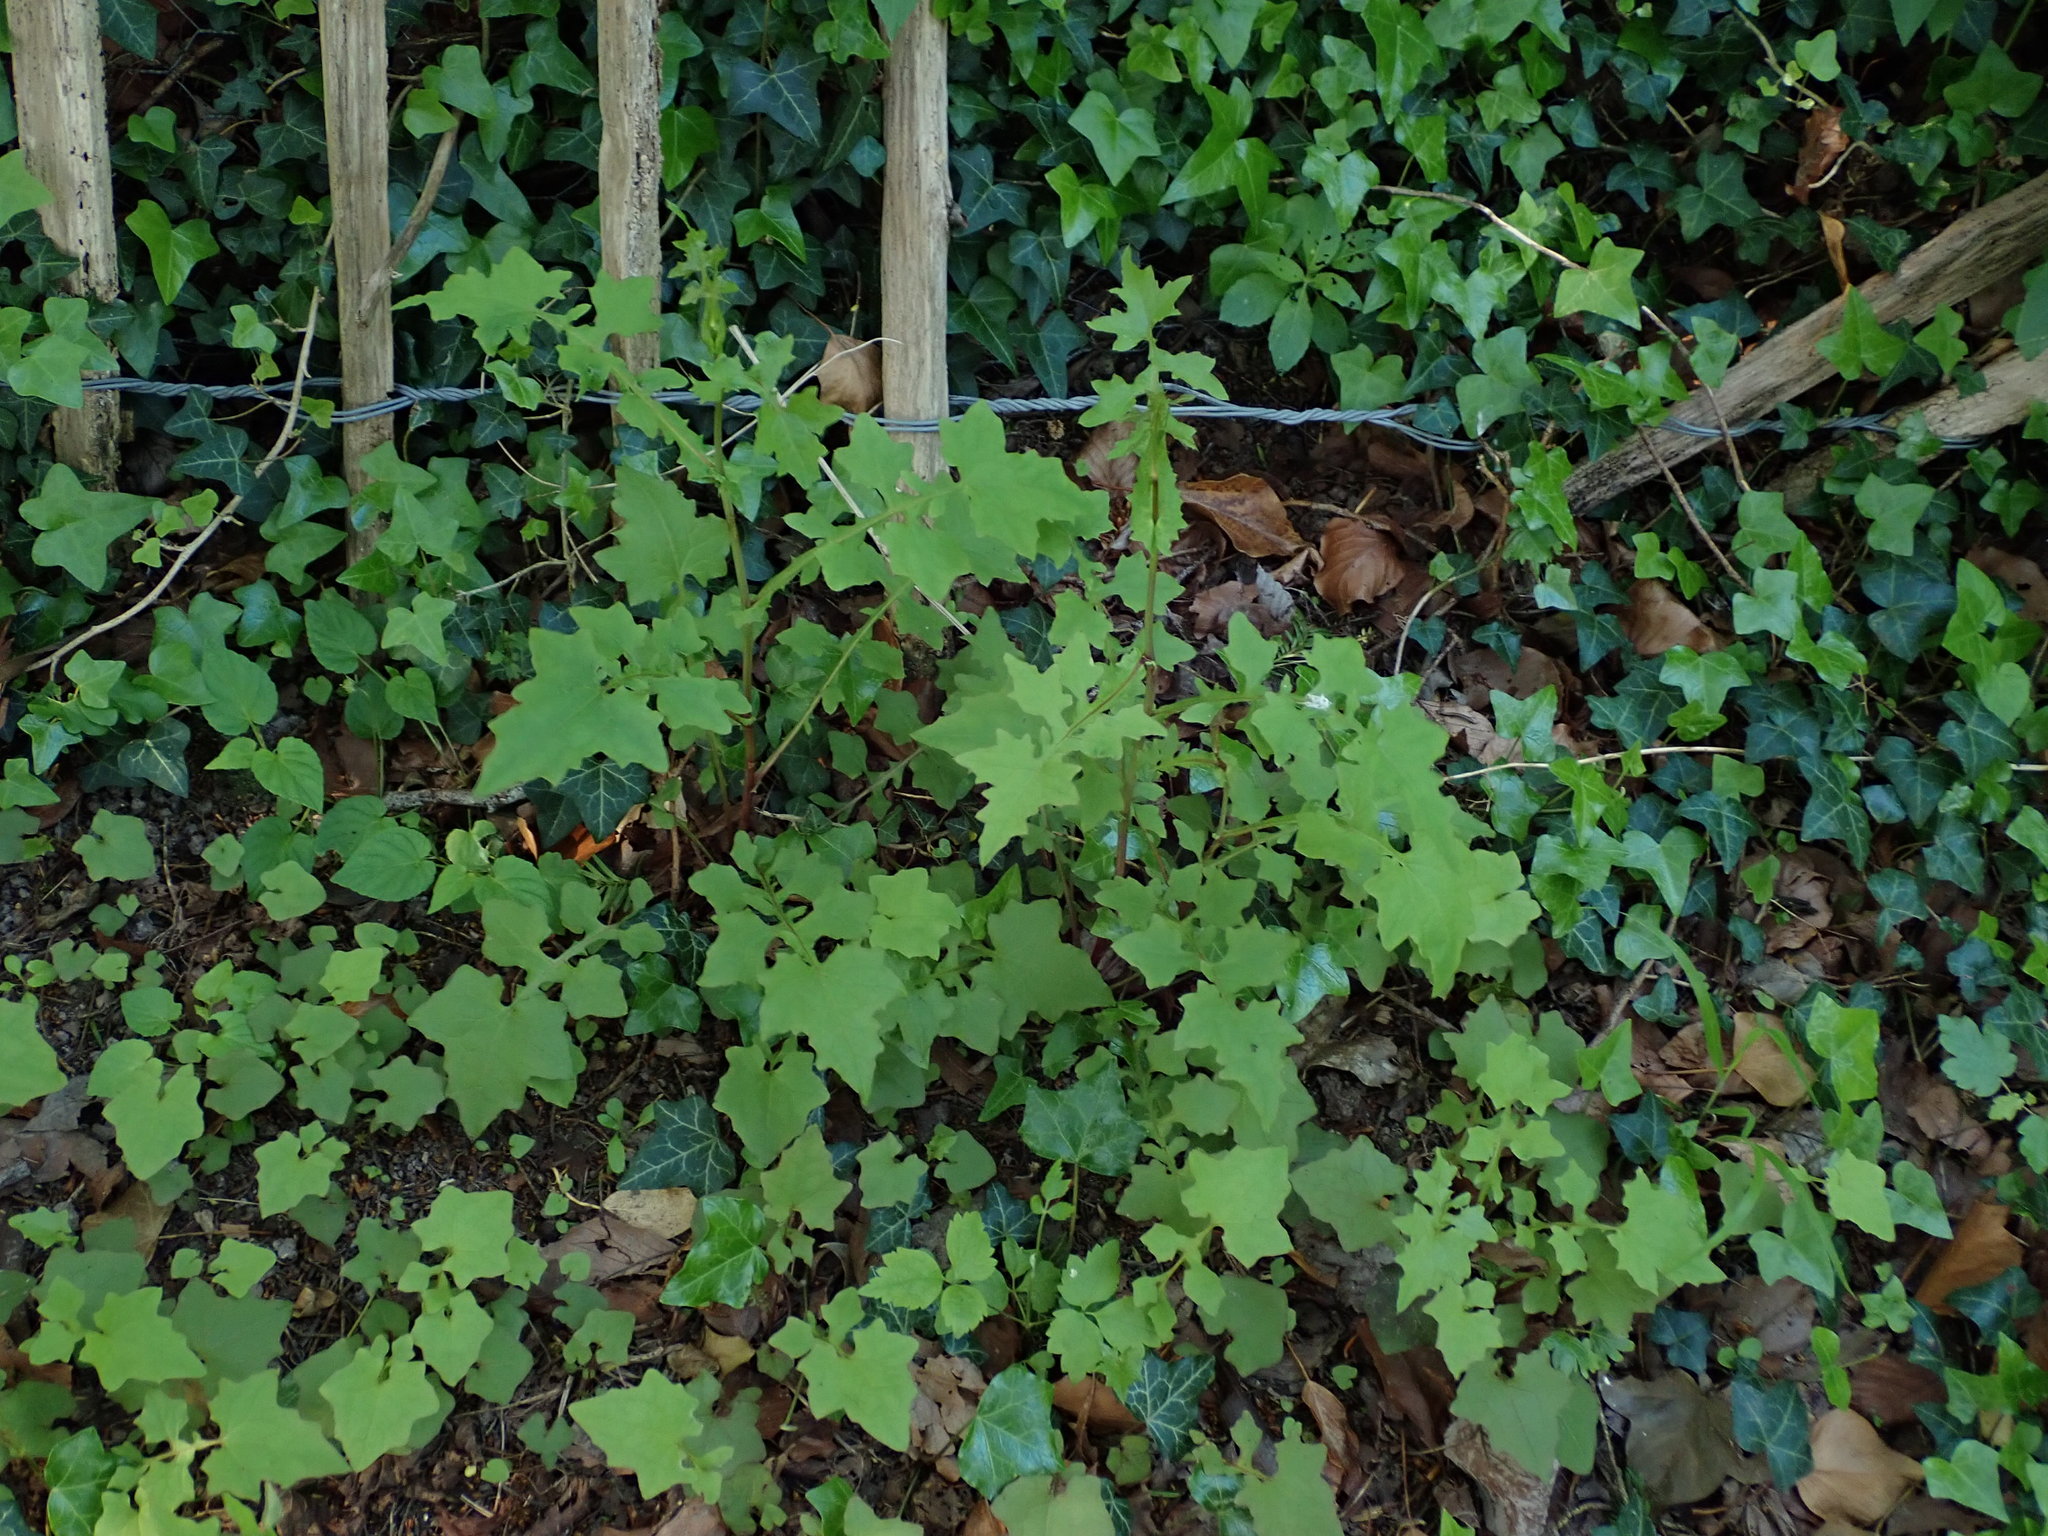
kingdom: Plantae
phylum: Tracheophyta
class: Magnoliopsida
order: Asterales
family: Asteraceae
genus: Mycelis
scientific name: Mycelis muralis
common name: Wall lettuce
